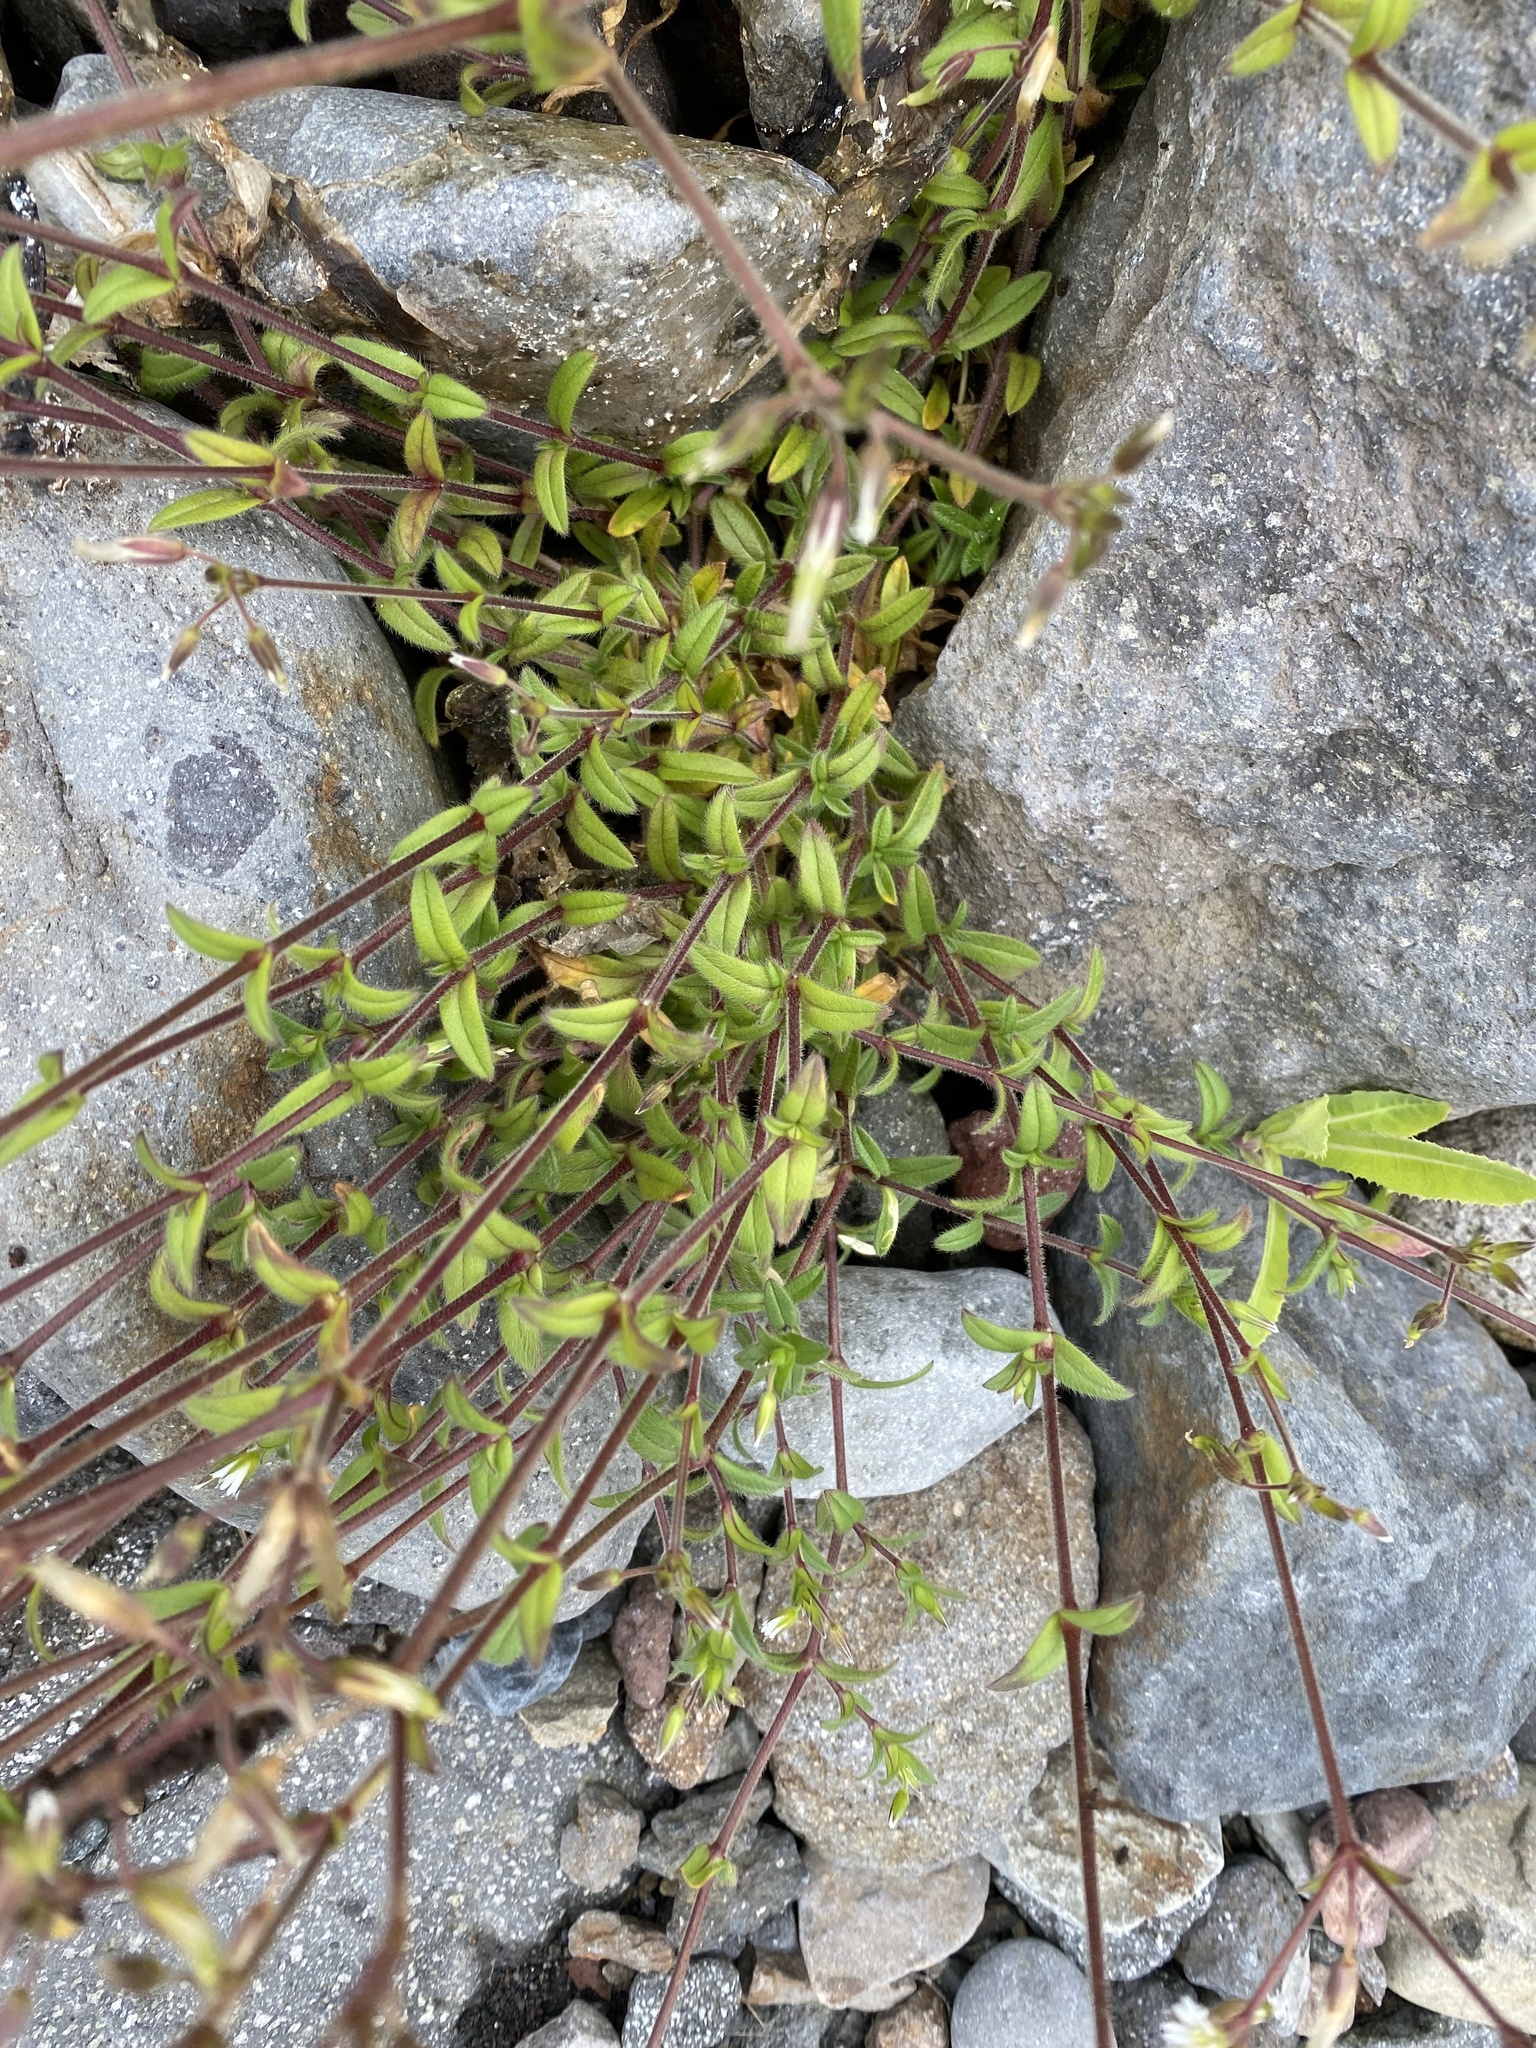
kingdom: Plantae
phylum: Tracheophyta
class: Magnoliopsida
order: Caryophyllales
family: Caryophyllaceae
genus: Cerastium
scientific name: Cerastium holosteoides
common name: Big chickweed
